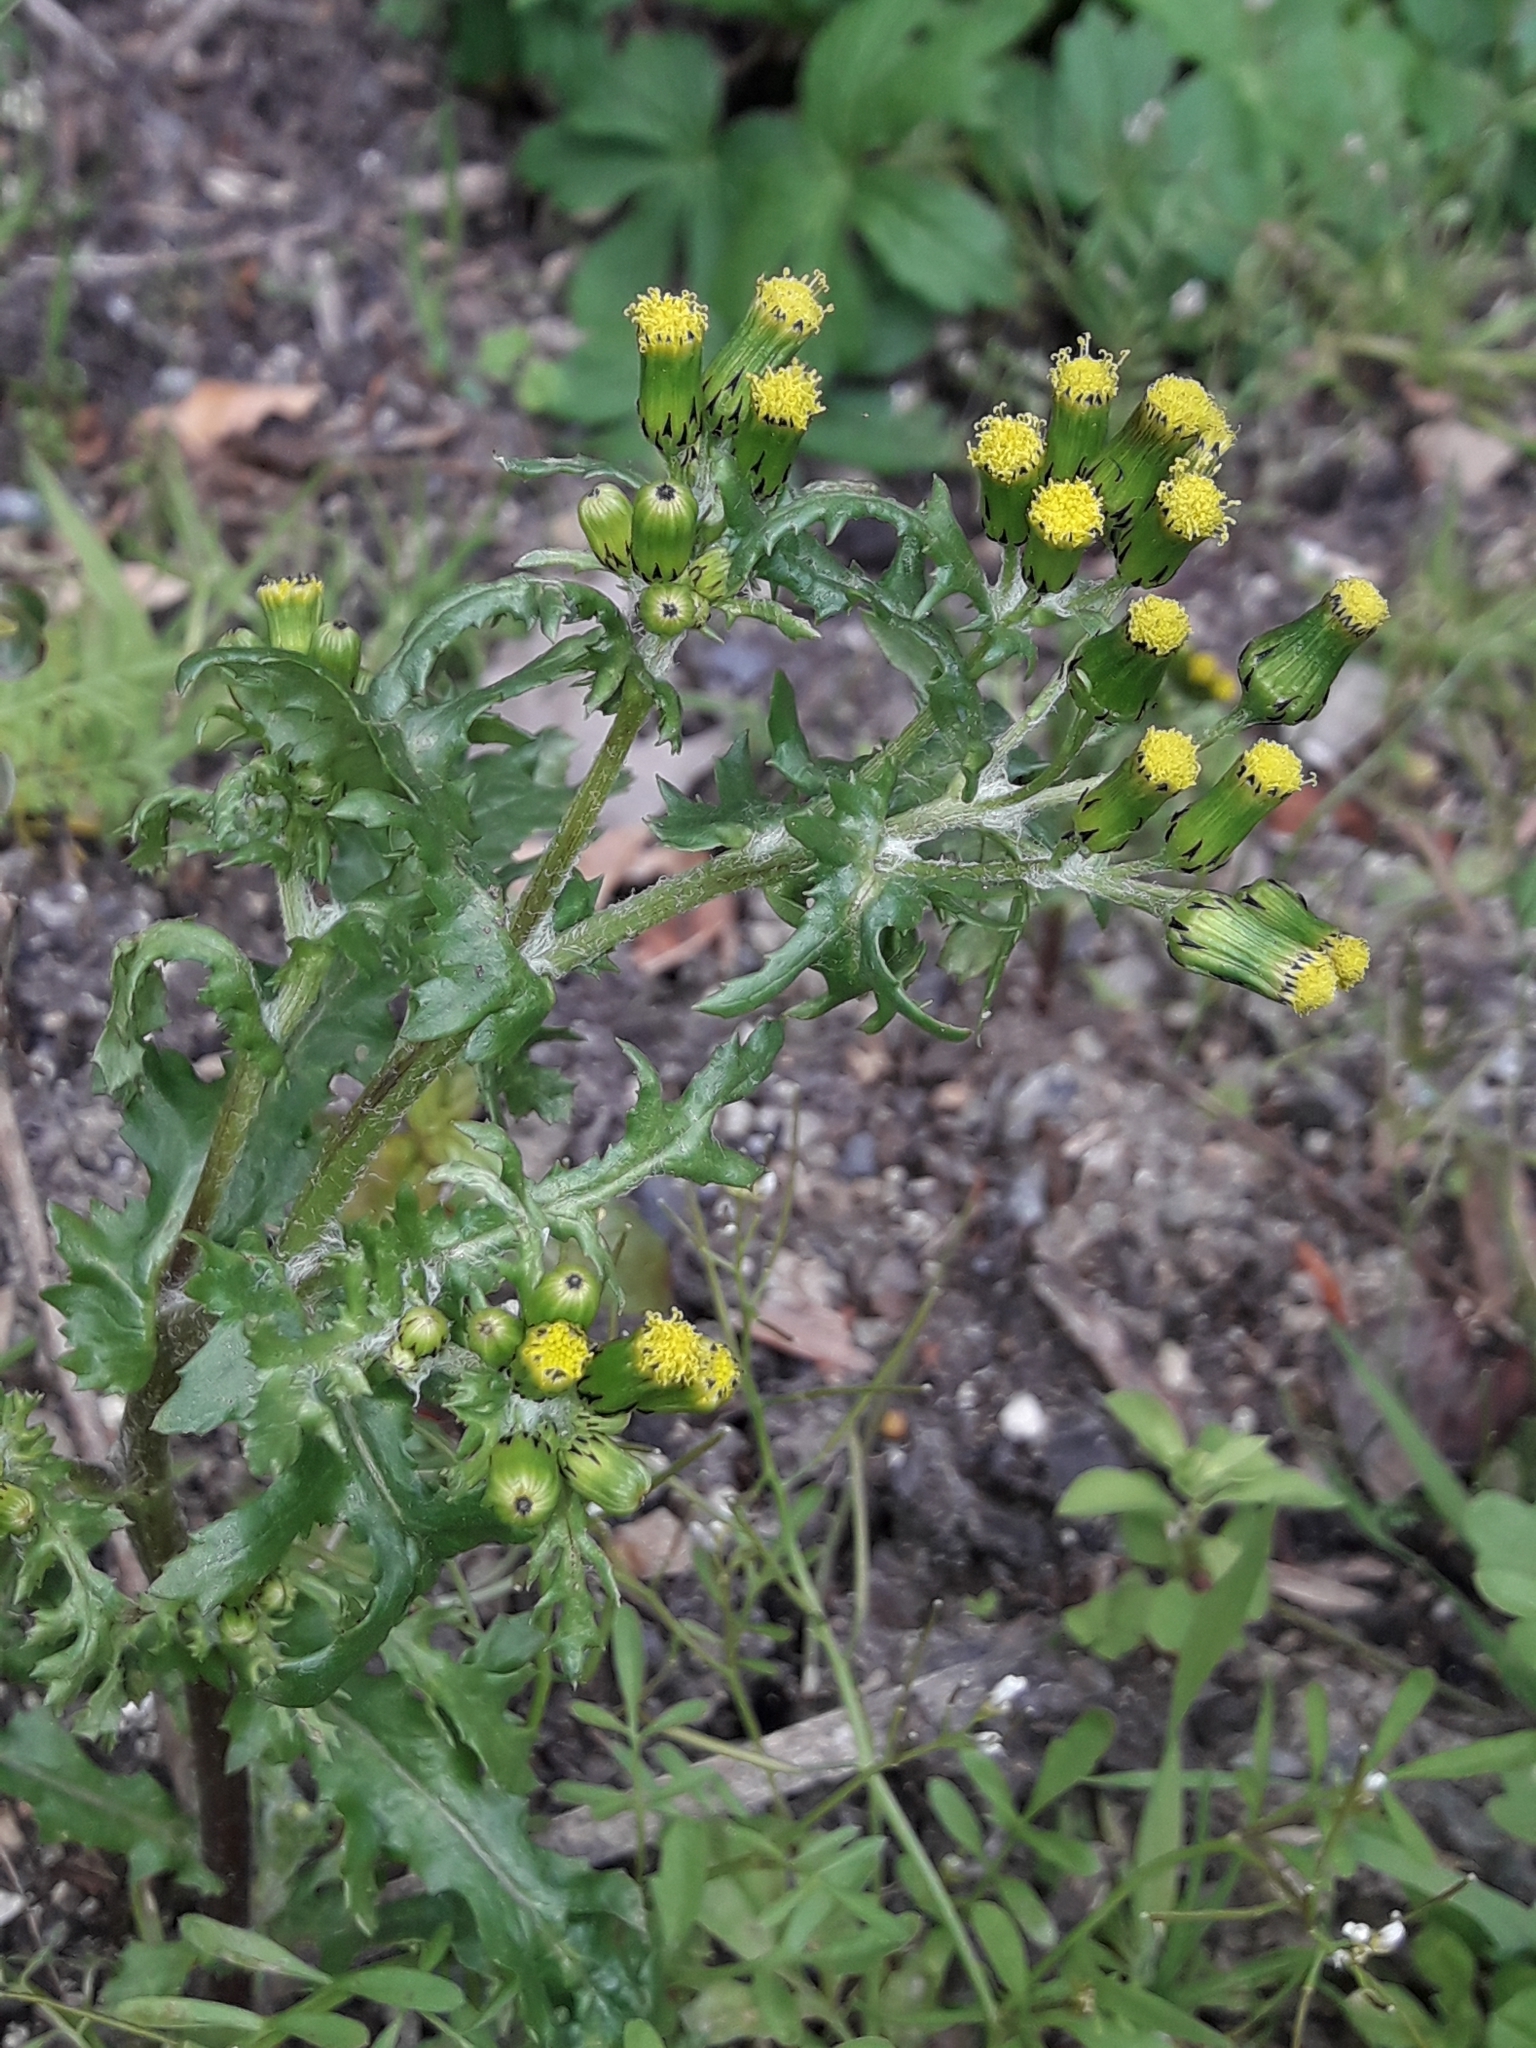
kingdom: Plantae
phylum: Tracheophyta
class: Magnoliopsida
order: Asterales
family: Asteraceae
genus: Senecio
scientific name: Senecio vulgaris
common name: Old-man-in-the-spring
